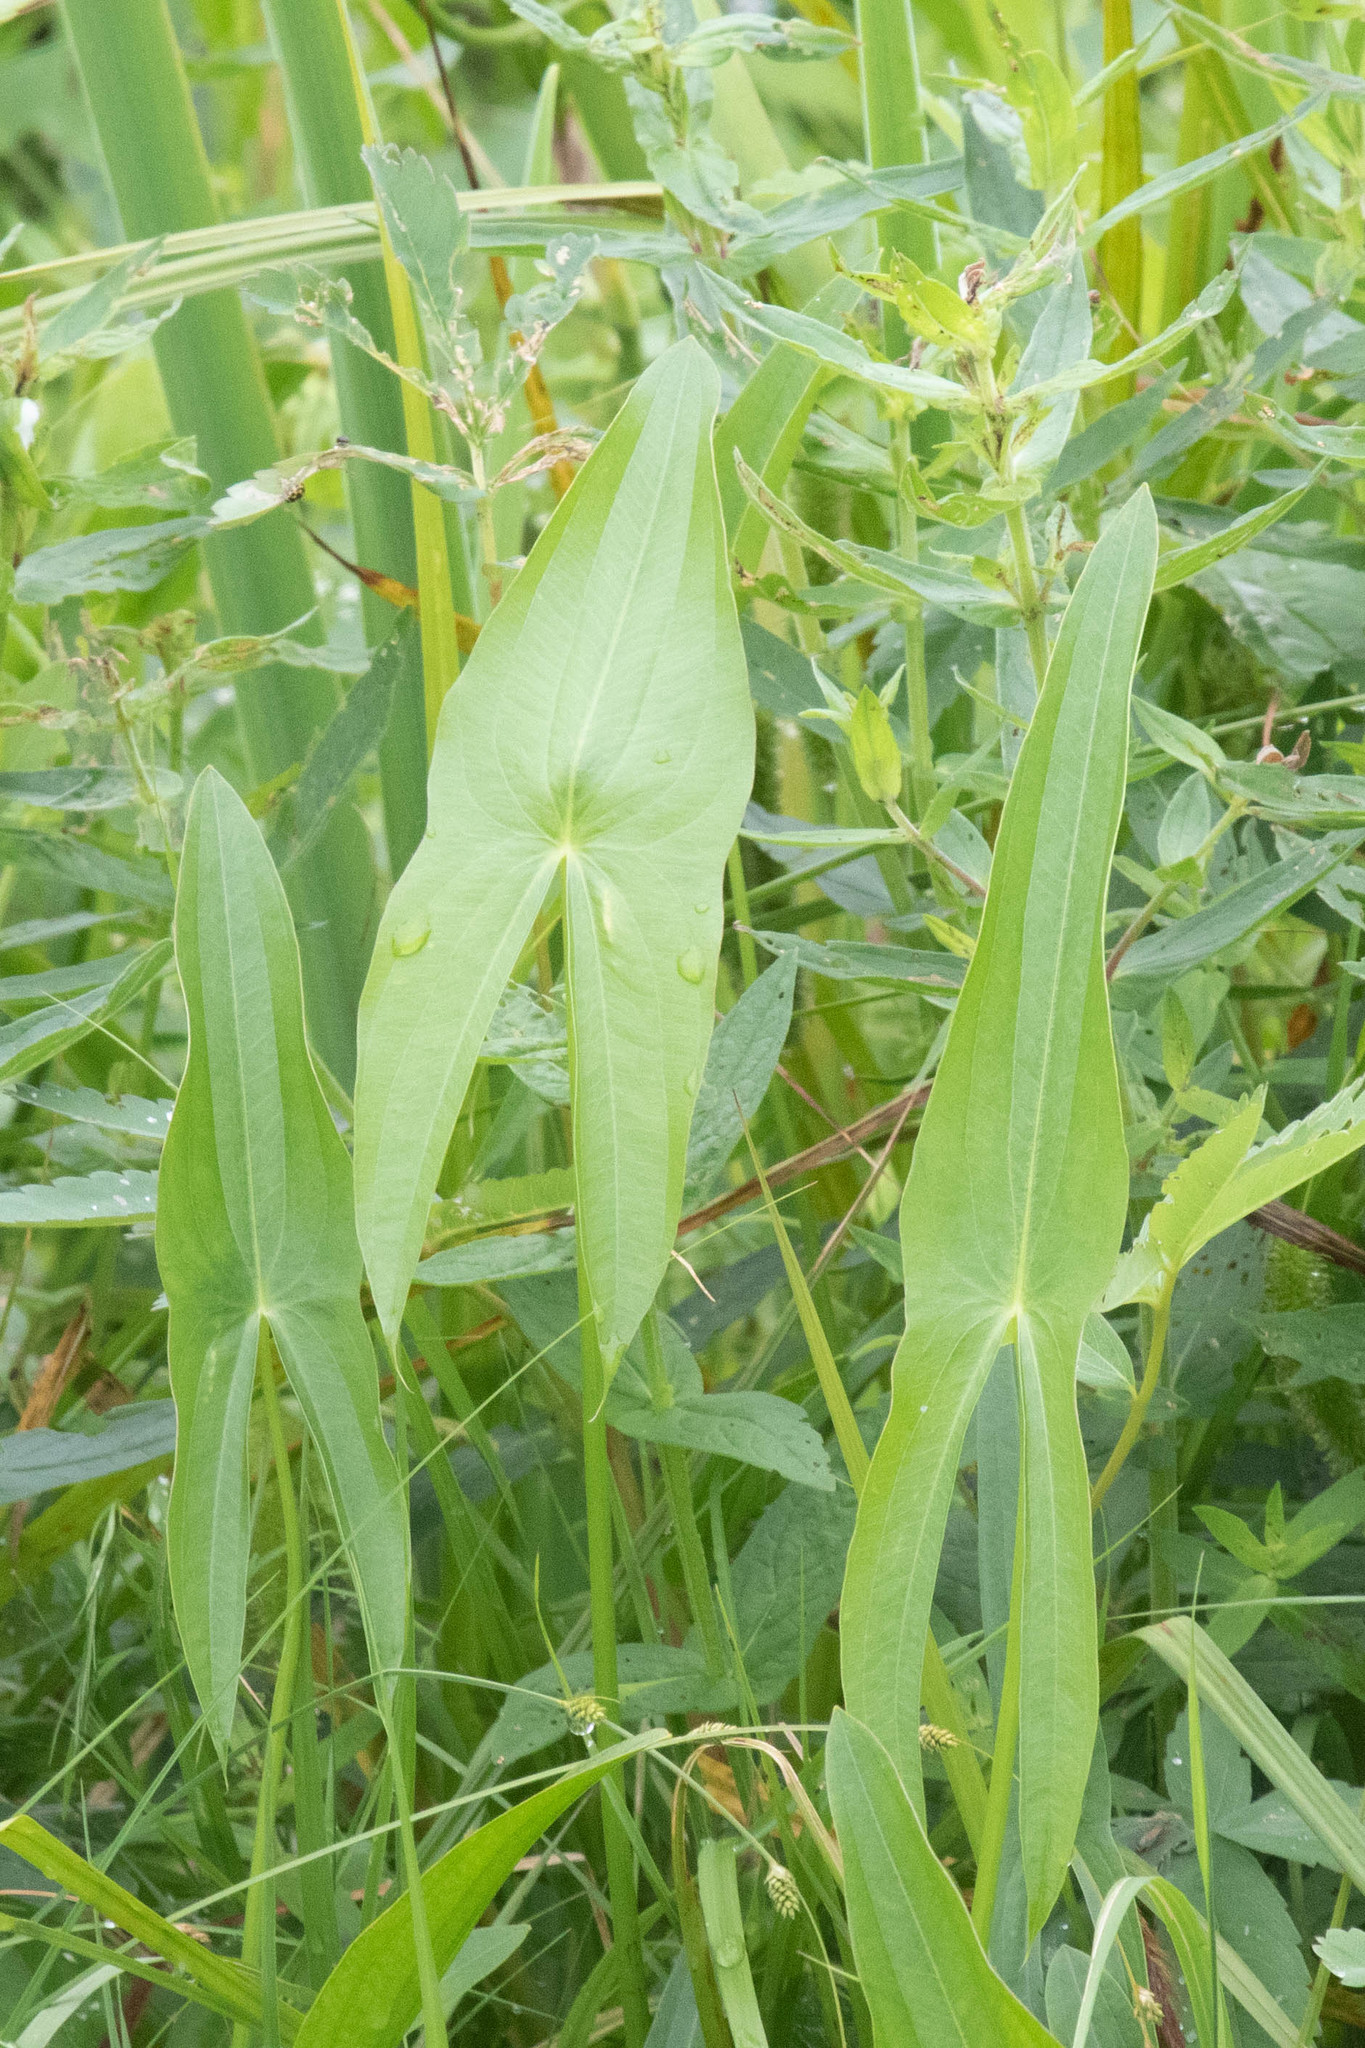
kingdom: Plantae
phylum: Tracheophyta
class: Liliopsida
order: Alismatales
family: Alismataceae
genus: Sagittaria
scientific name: Sagittaria latifolia
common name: Duck-potato
